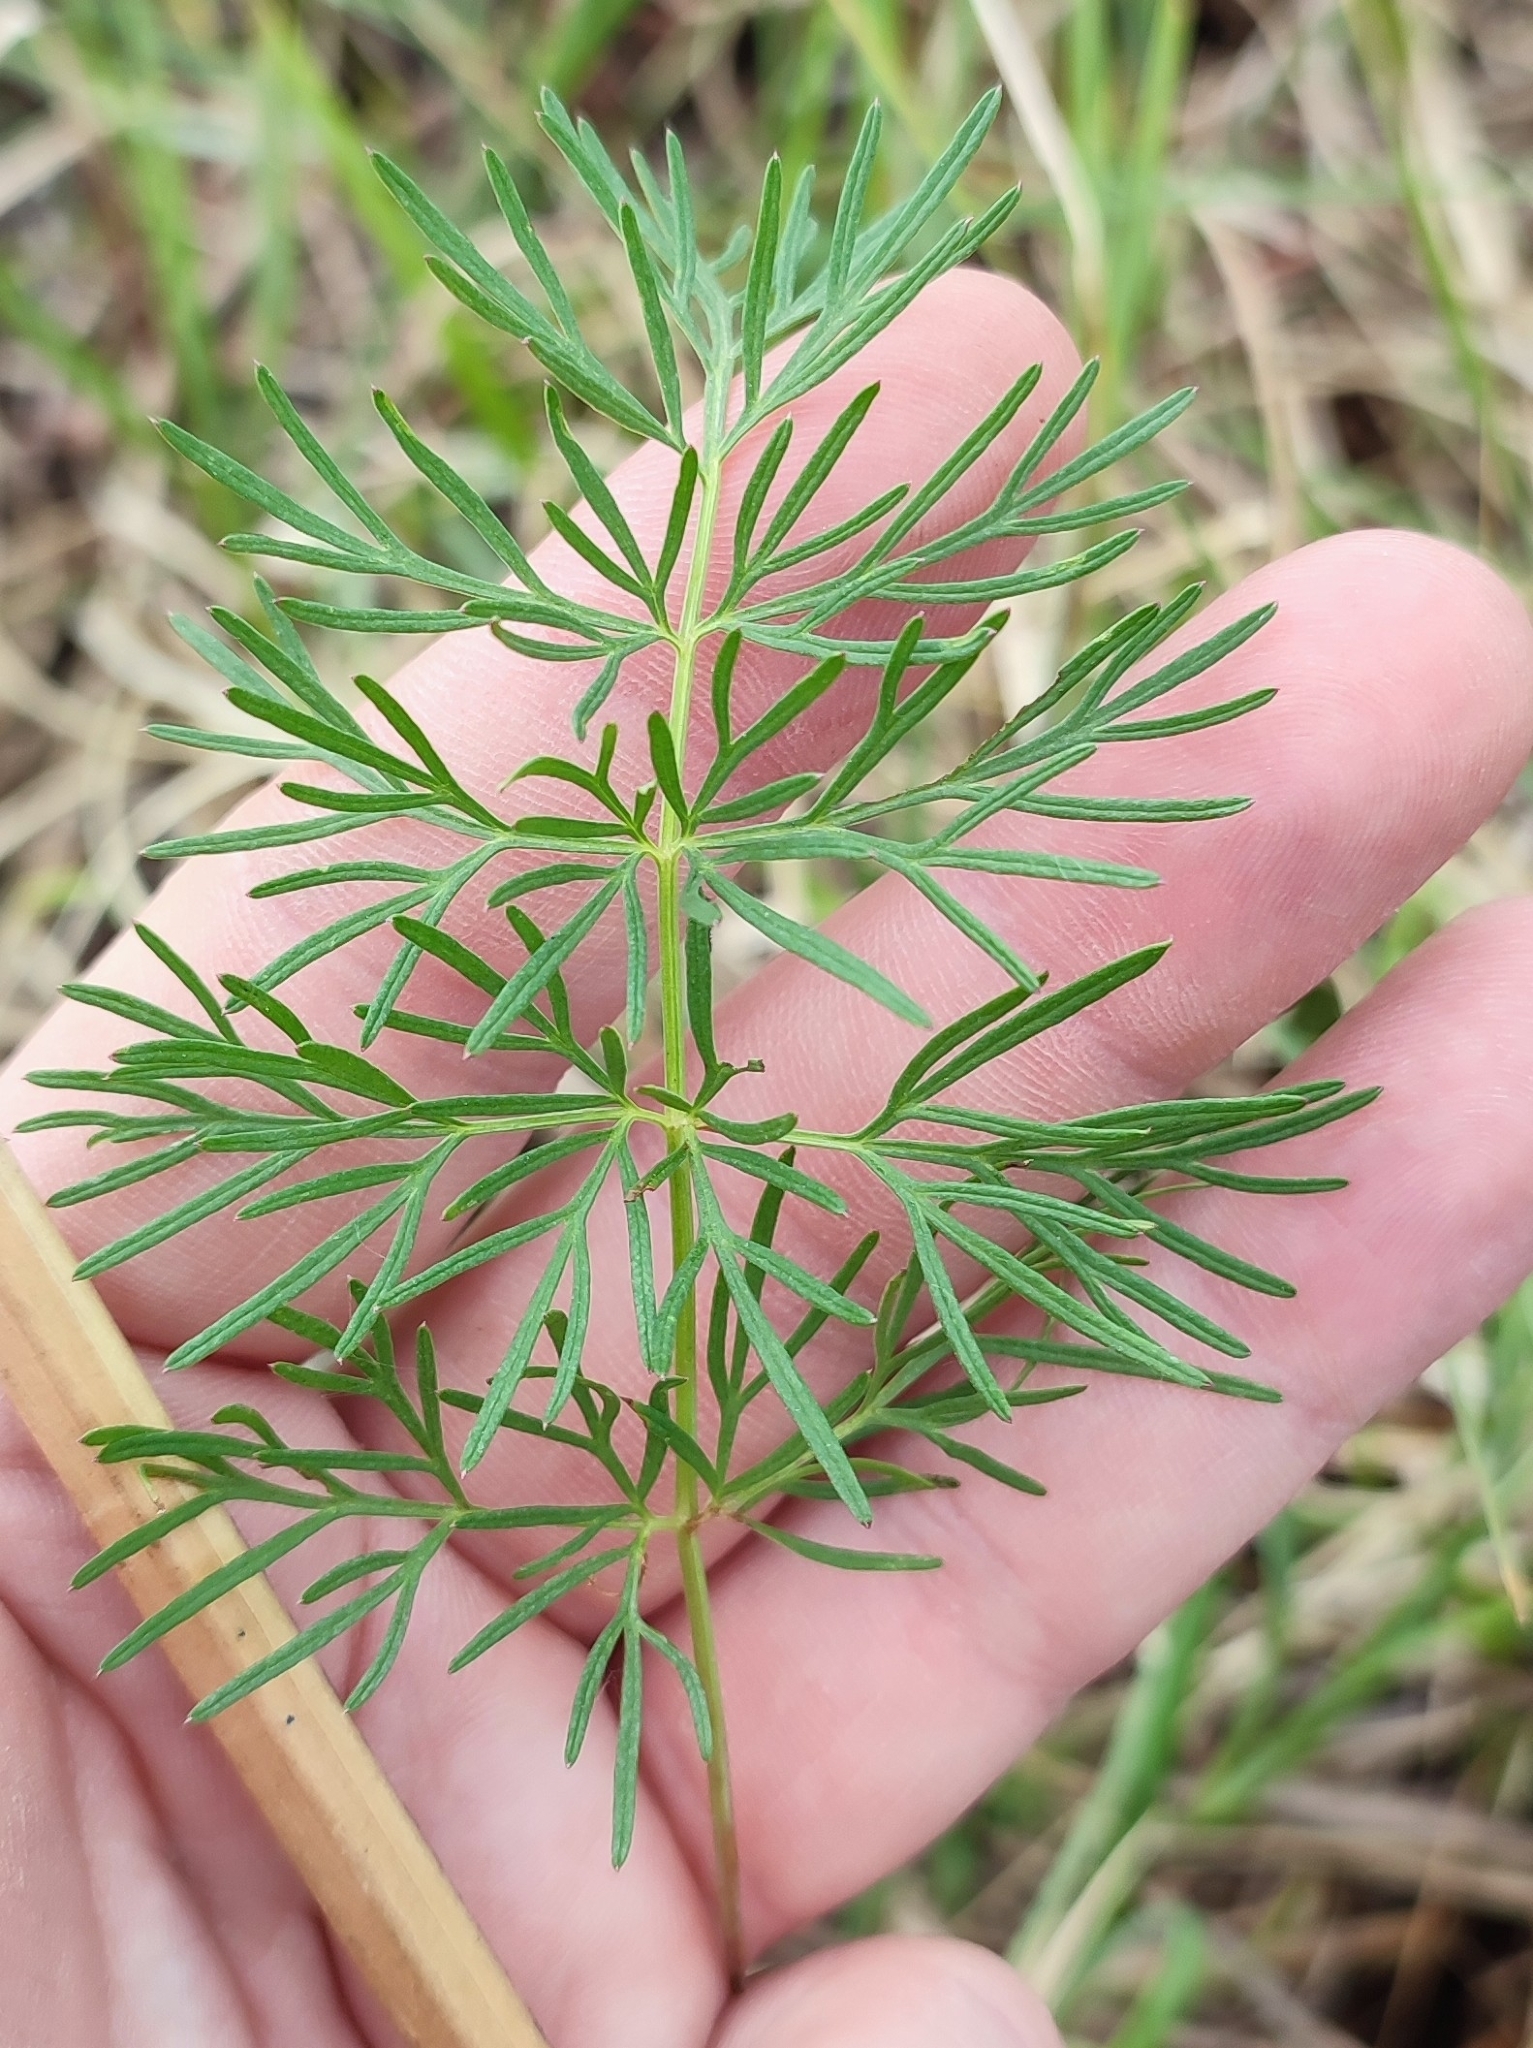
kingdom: Plantae
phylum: Tracheophyta
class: Magnoliopsida
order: Apiales
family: Apiaceae
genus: Kadenia
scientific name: Kadenia dubia
